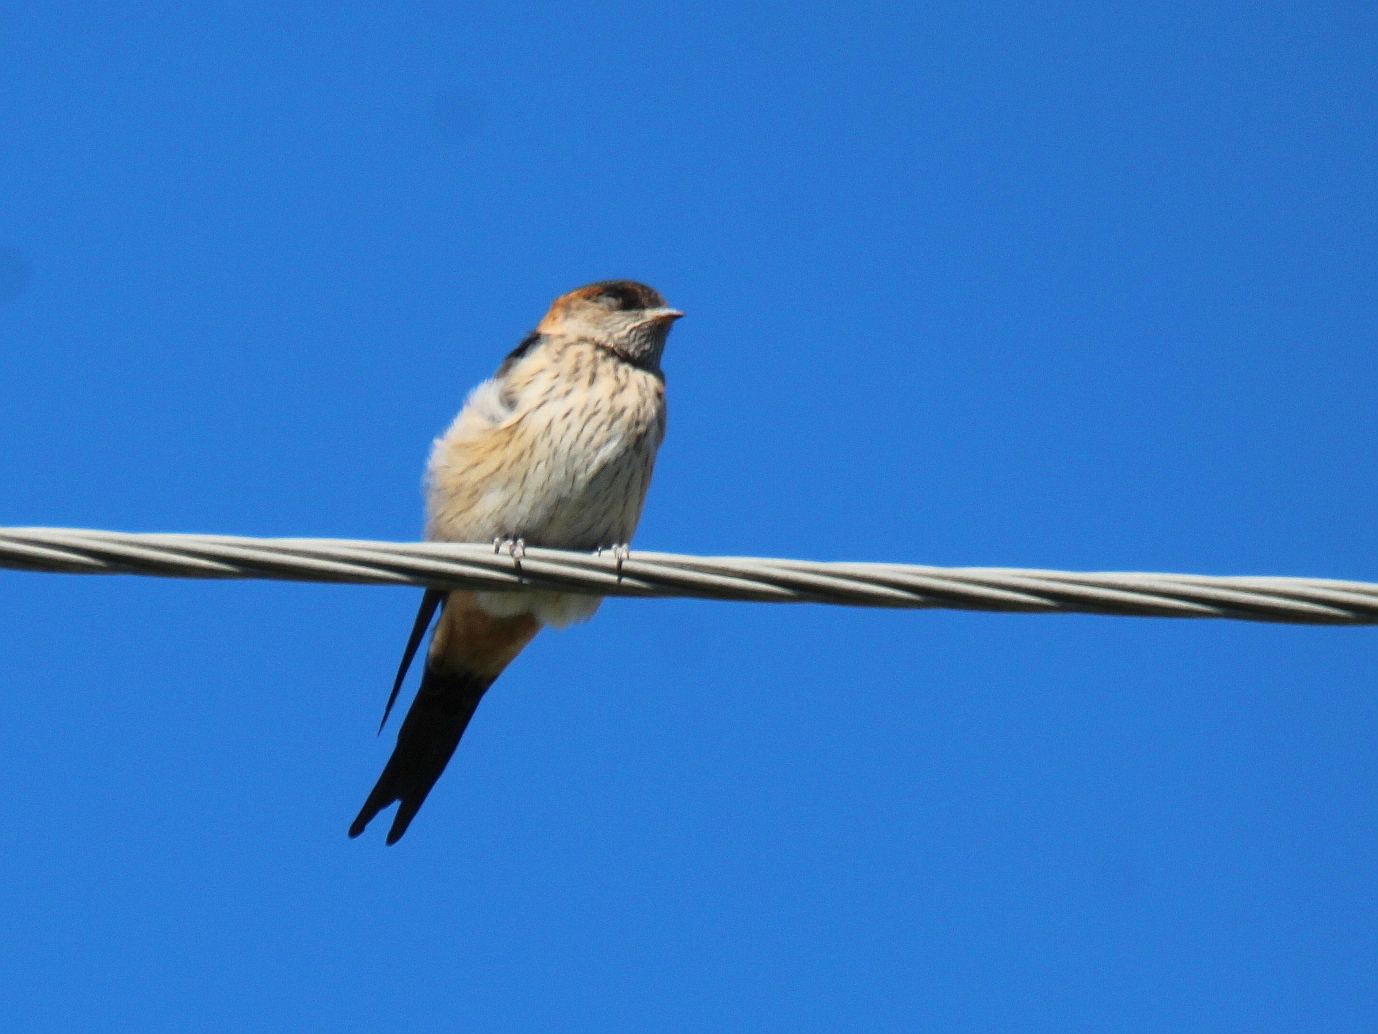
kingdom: Animalia
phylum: Chordata
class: Aves
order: Passeriformes
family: Hirundinidae
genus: Cecropis
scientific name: Cecropis daurica
